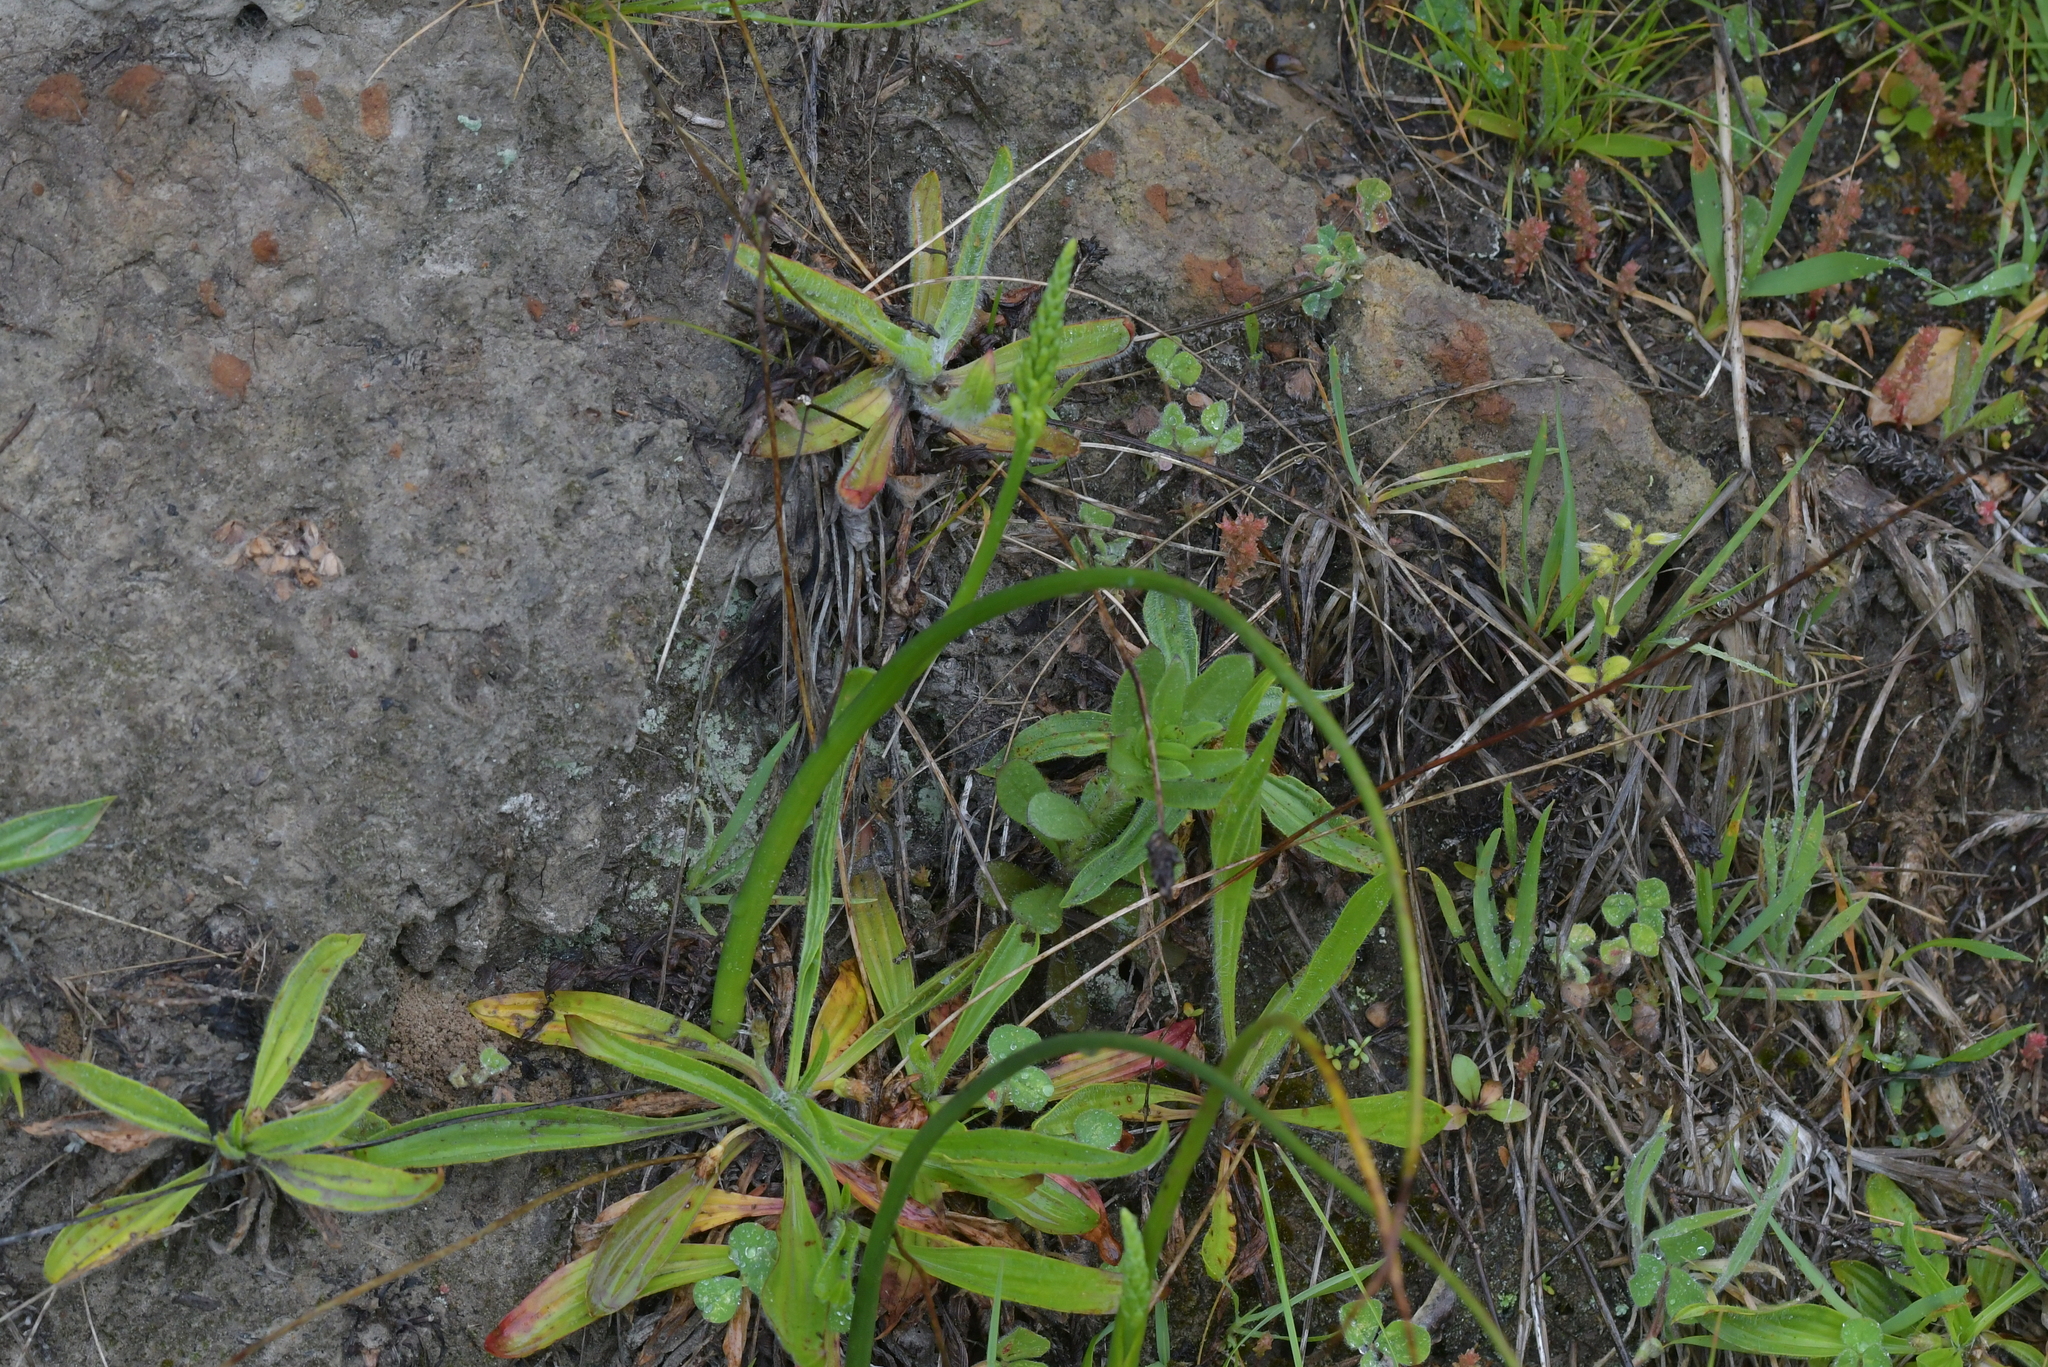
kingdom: Plantae
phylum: Tracheophyta
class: Liliopsida
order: Asparagales
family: Orchidaceae
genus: Microtis
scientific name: Microtis unifolia
